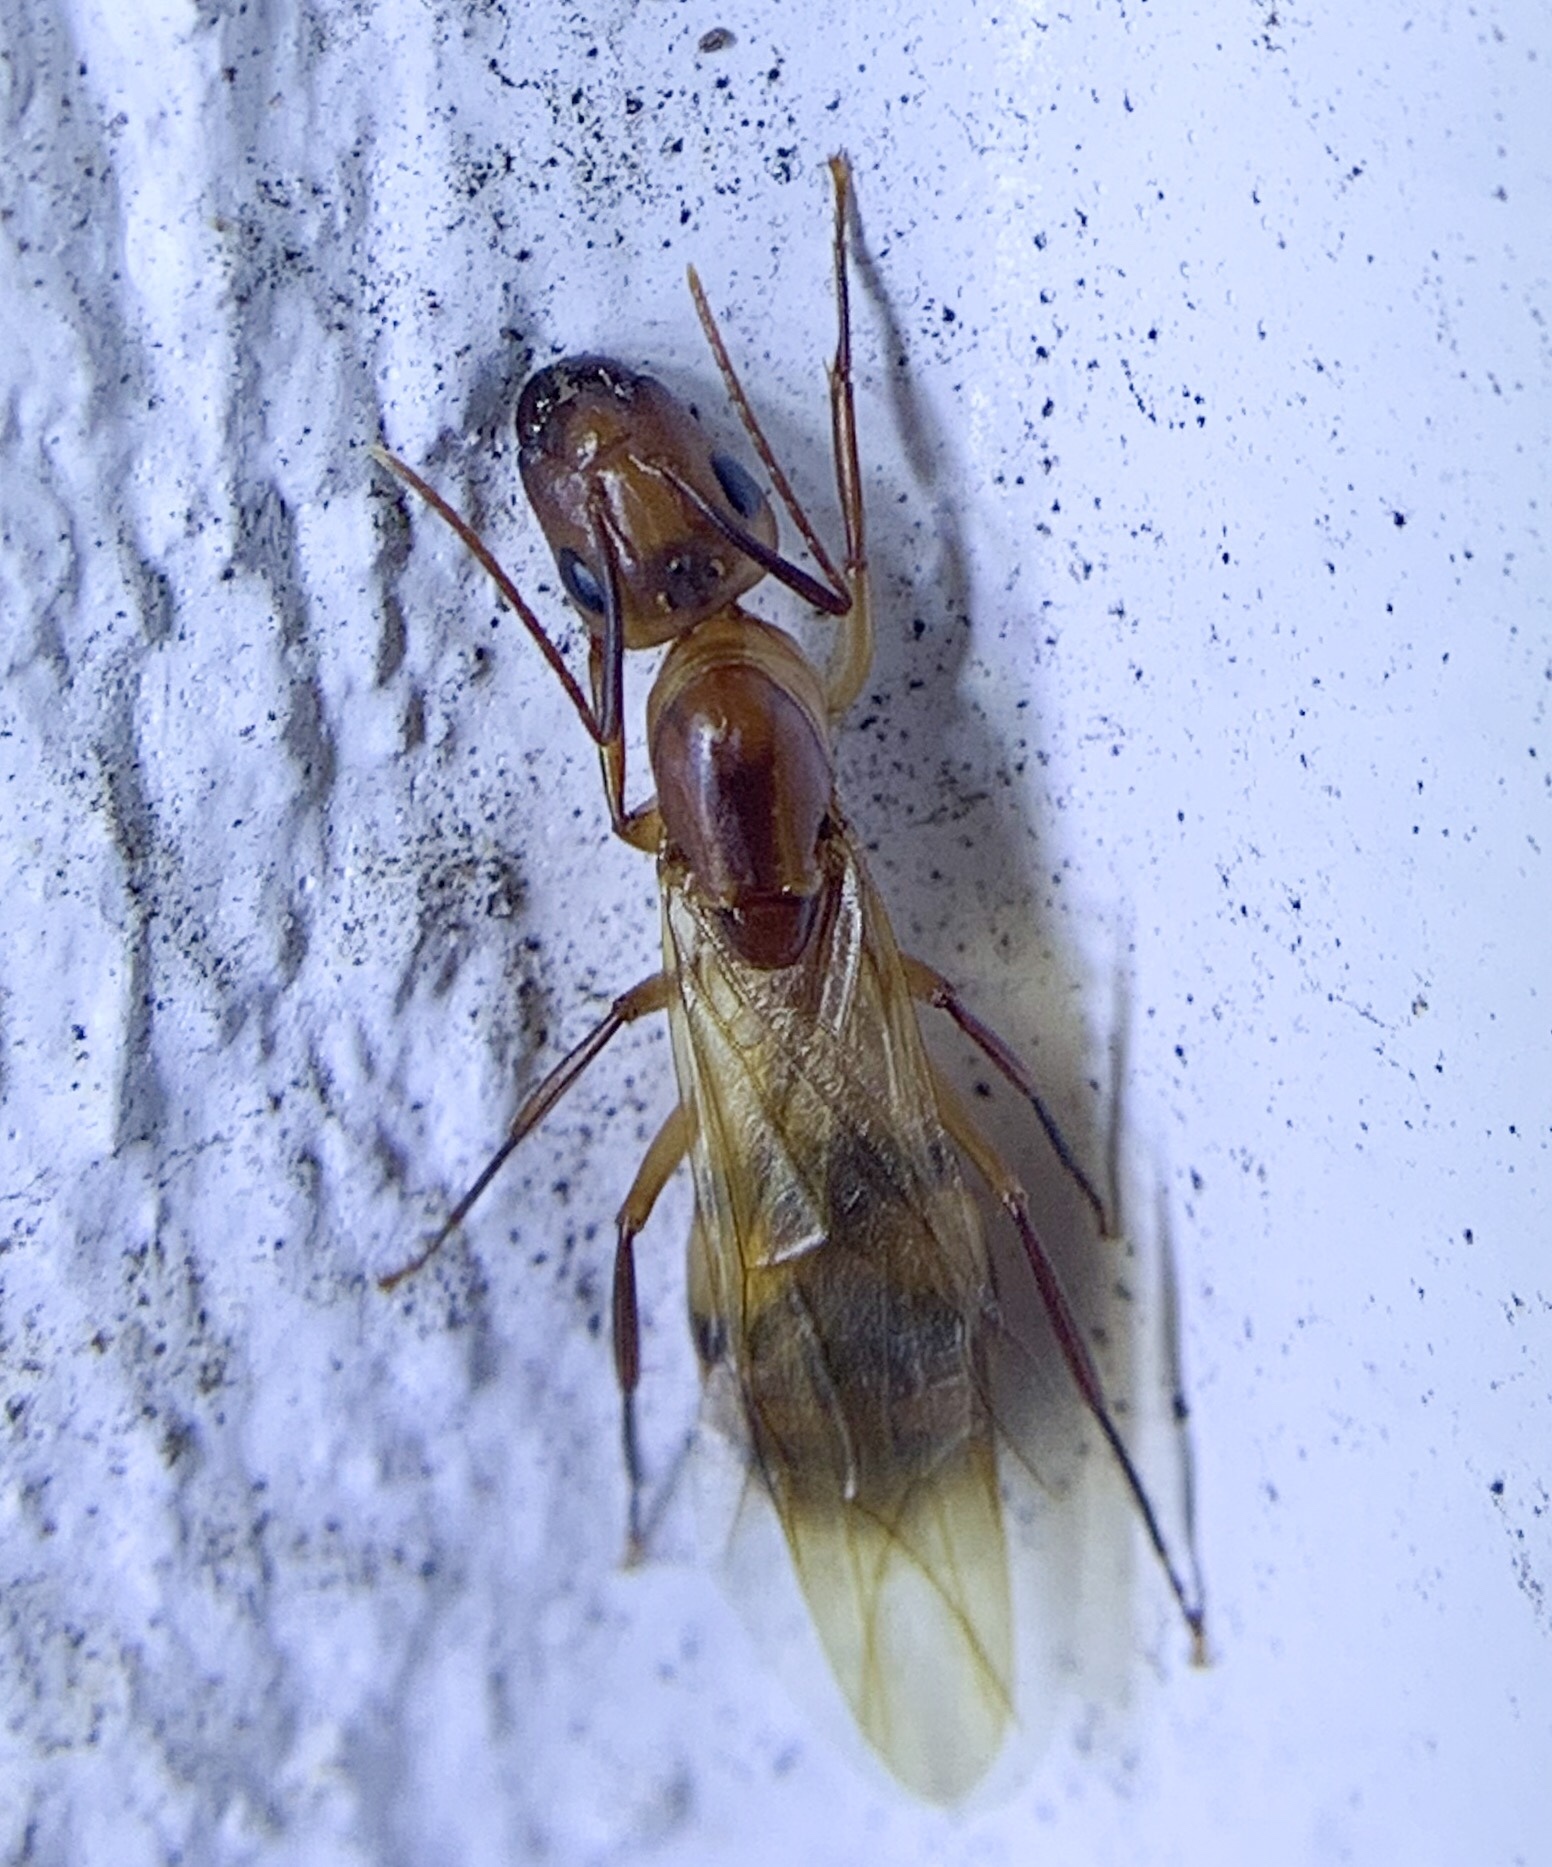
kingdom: Animalia
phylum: Arthropoda
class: Insecta
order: Hymenoptera
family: Formicidae
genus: Camponotus
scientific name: Camponotus variegatus
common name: Hawaiian carpenter ant
